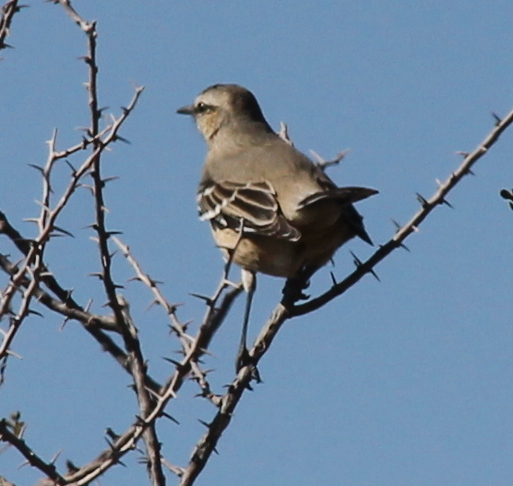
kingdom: Animalia
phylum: Chordata
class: Aves
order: Passeriformes
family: Mimidae
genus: Mimus
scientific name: Mimus patagonicus
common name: Patagonian mockingbird
